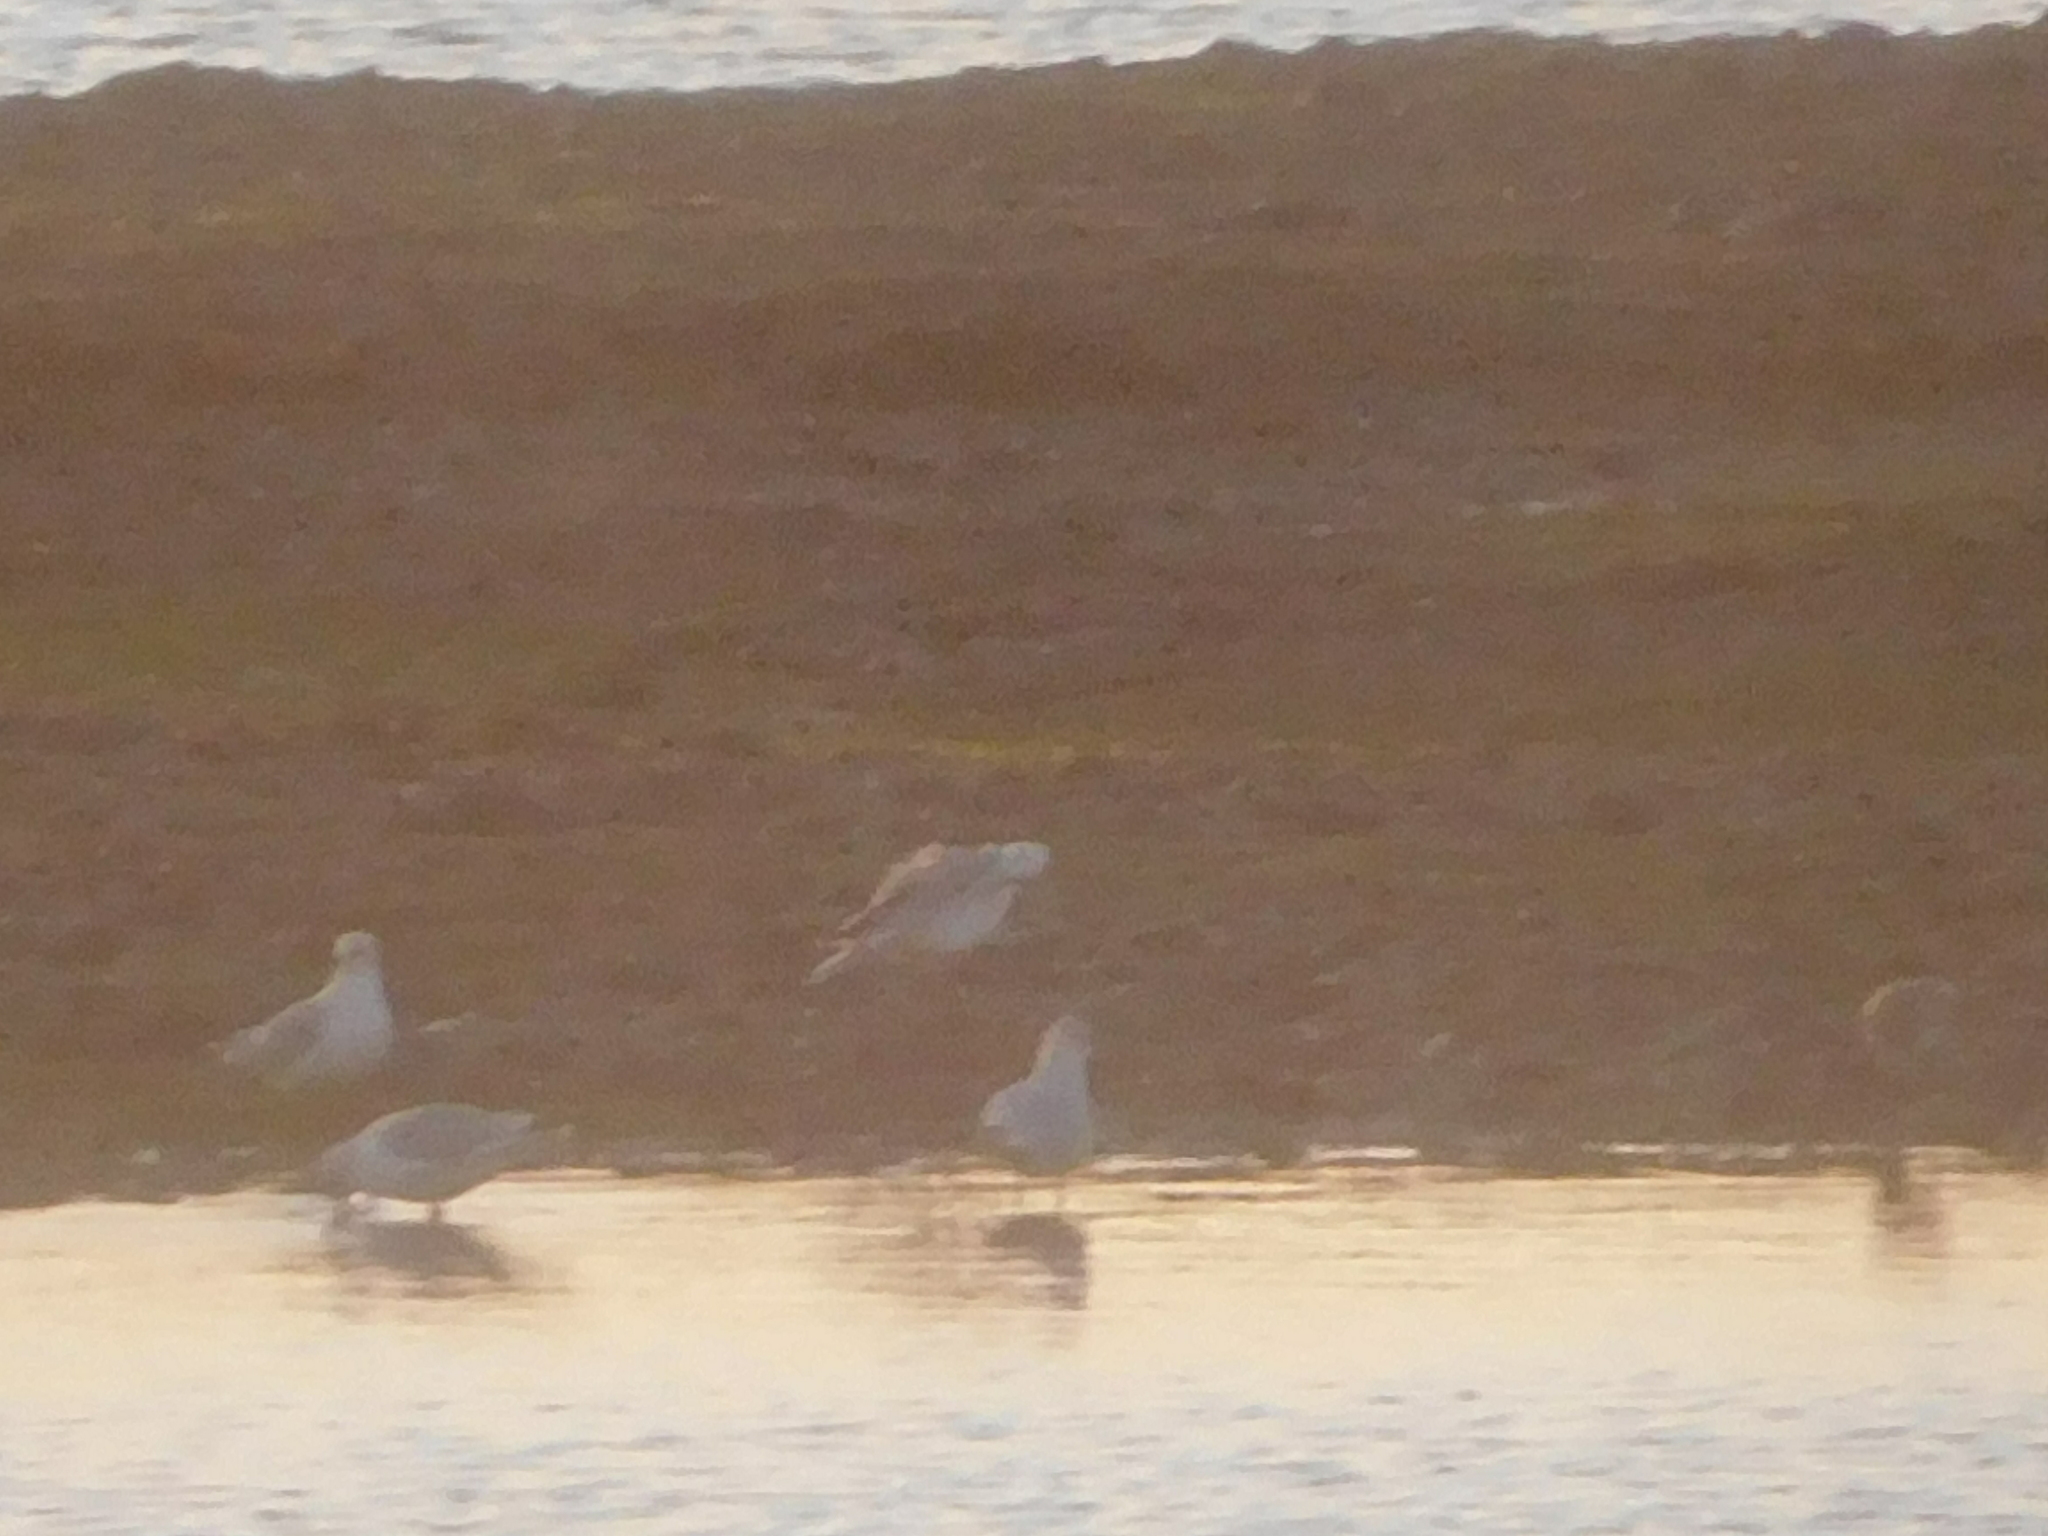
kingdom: Animalia
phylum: Chordata
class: Aves
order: Charadriiformes
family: Laridae
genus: Chroicocephalus
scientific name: Chroicocephalus ridibundus
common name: Black-headed gull
